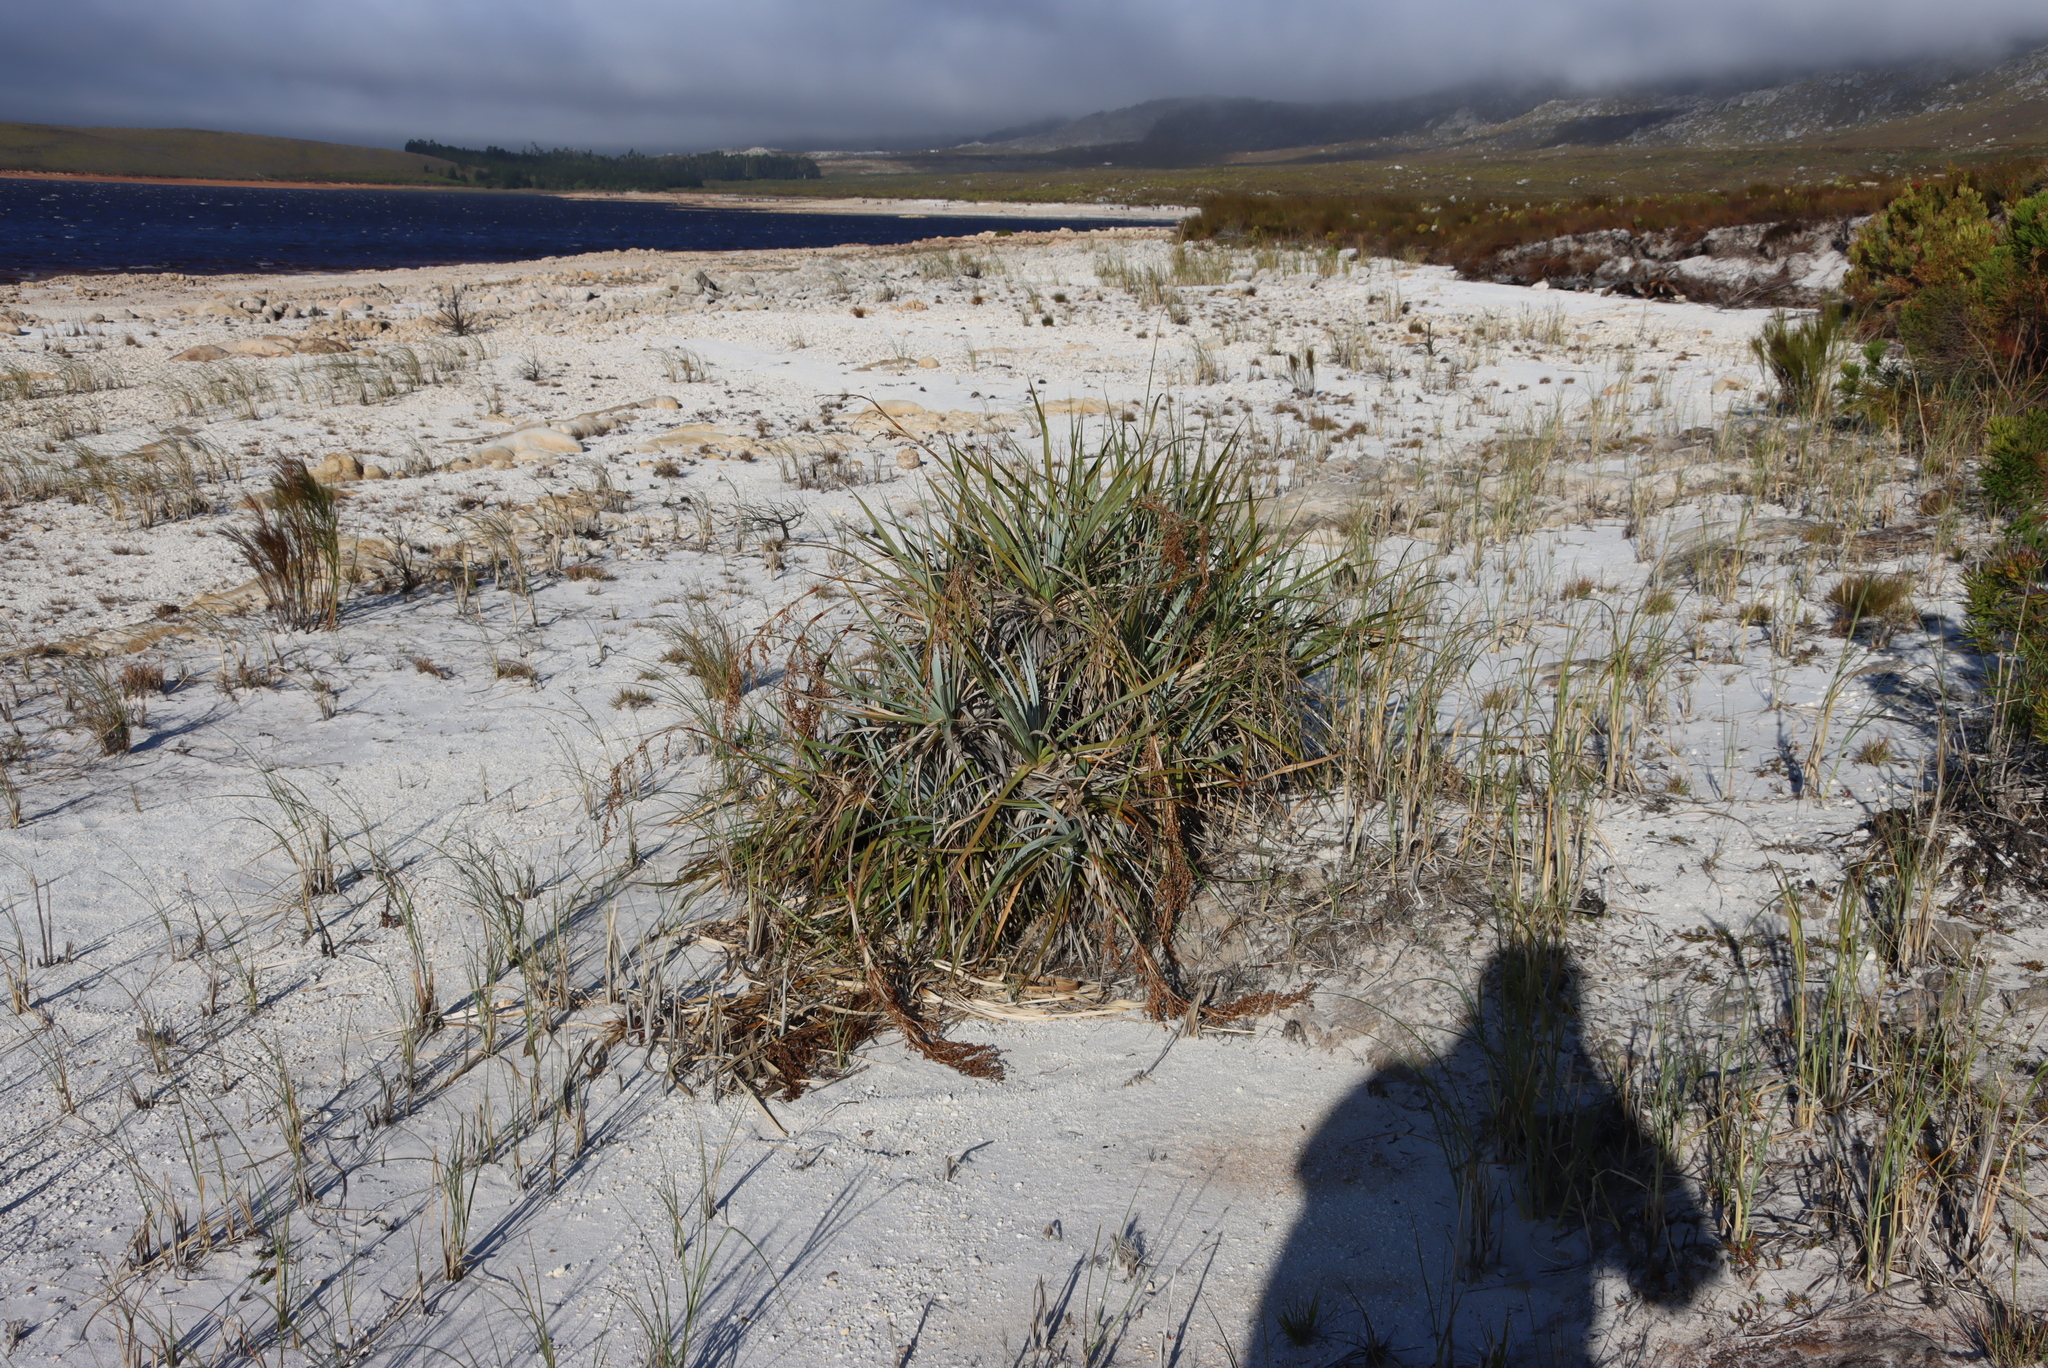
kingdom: Plantae
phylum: Tracheophyta
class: Liliopsida
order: Poales
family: Thurniaceae
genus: Prionium
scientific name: Prionium serratum
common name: Palmiet
